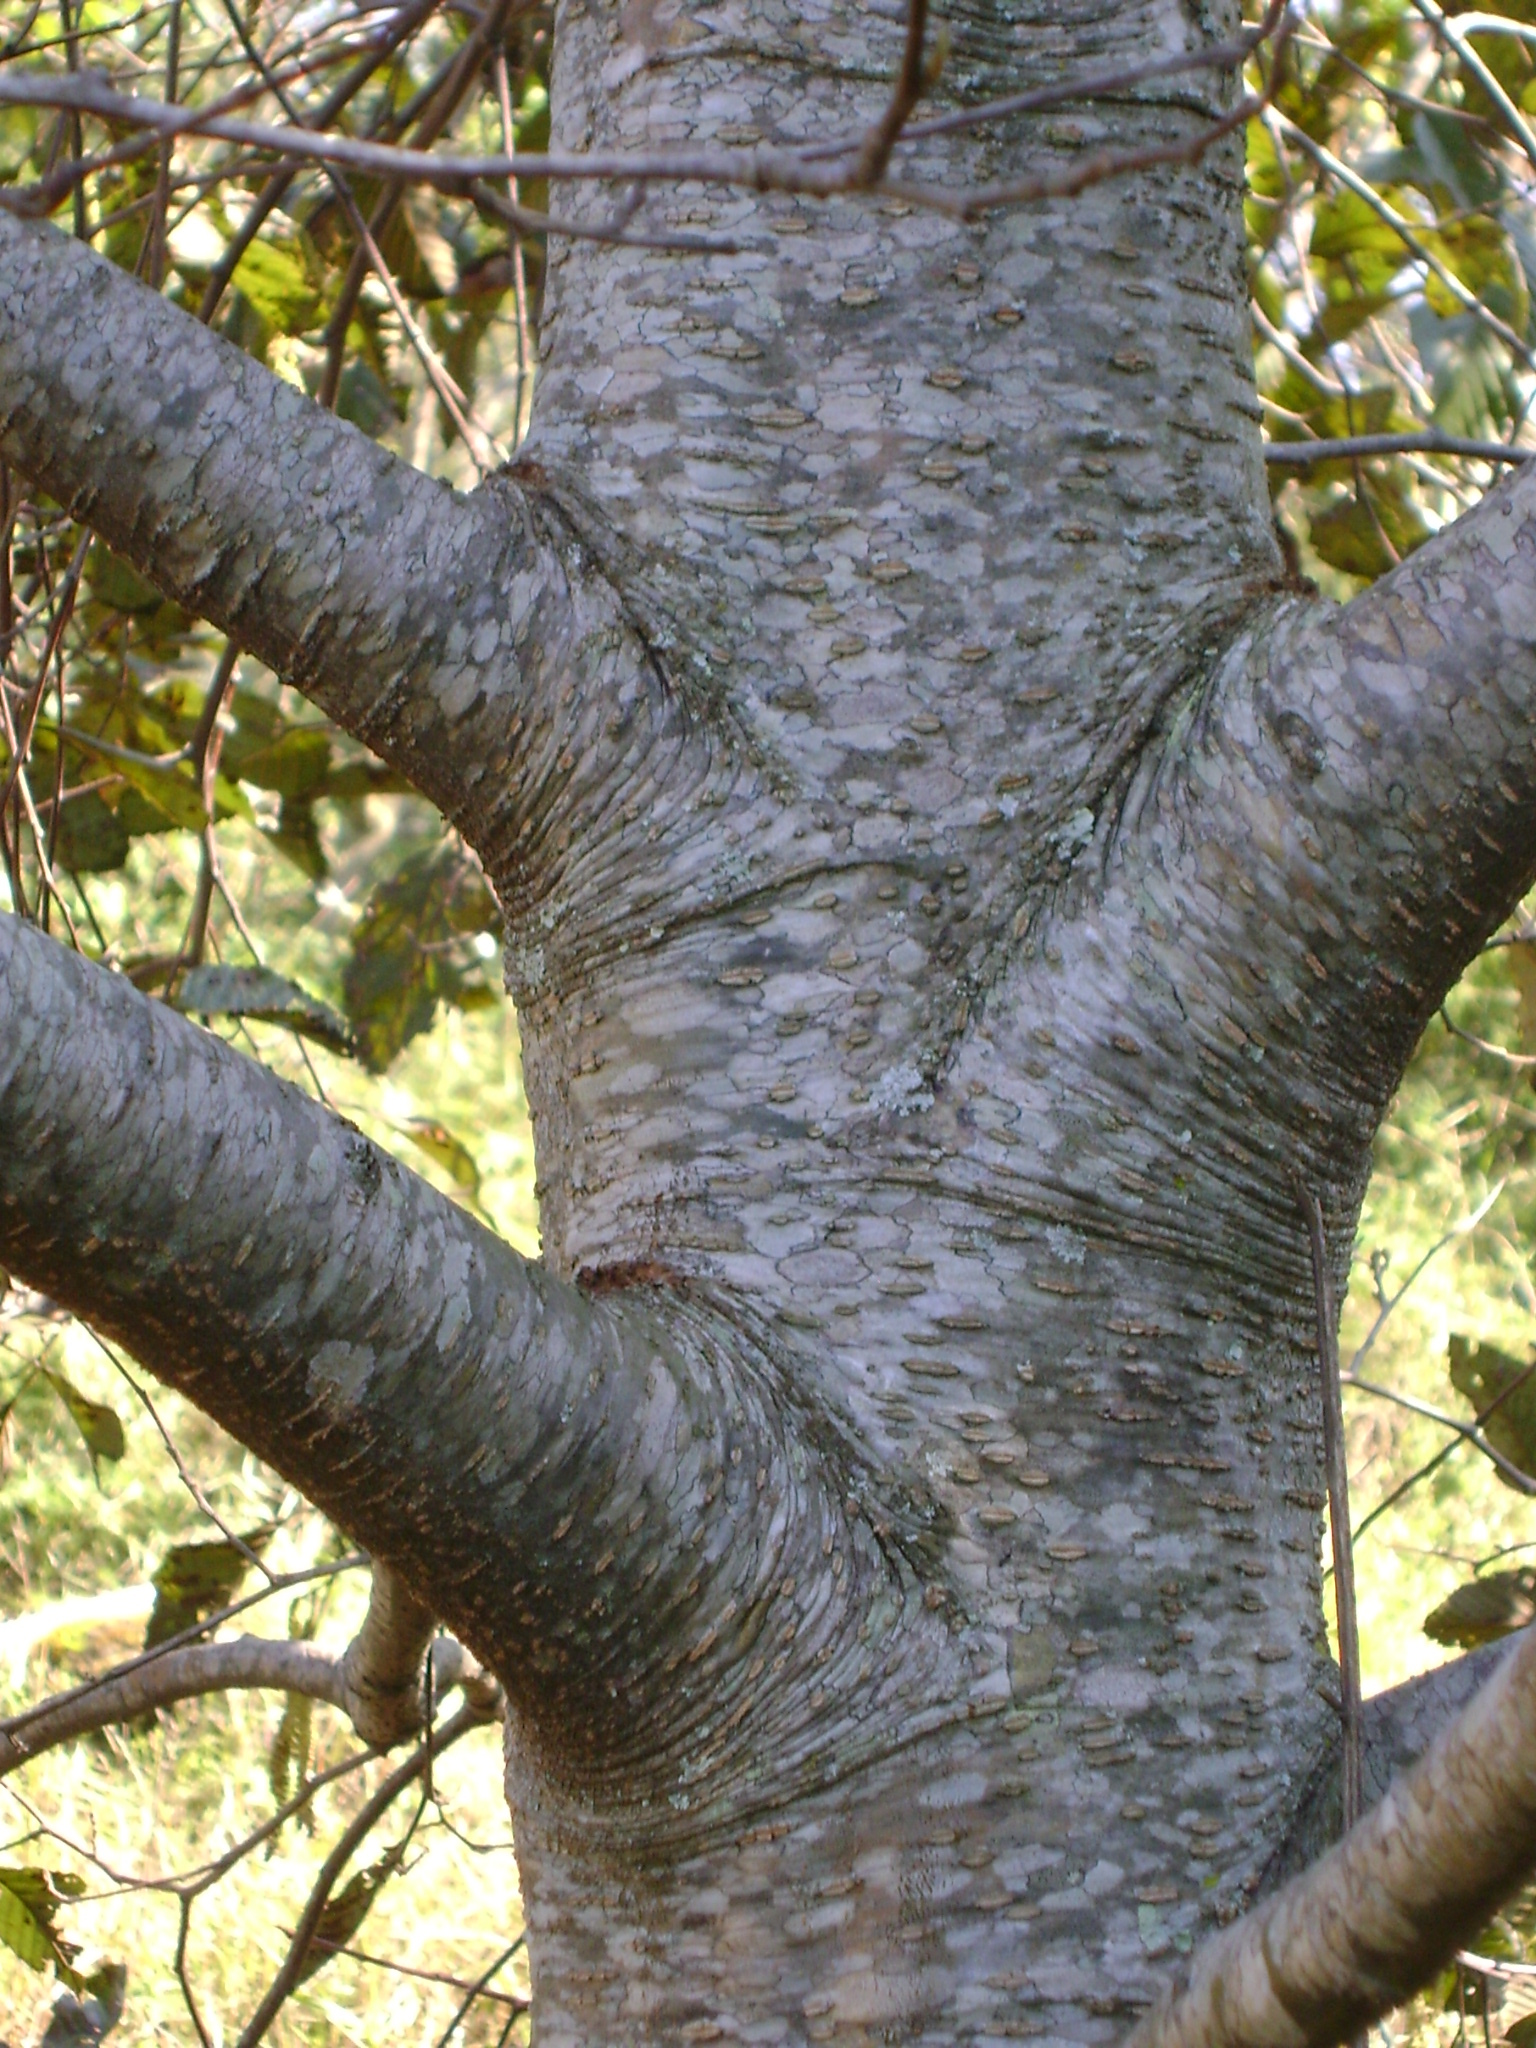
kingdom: Plantae
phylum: Tracheophyta
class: Magnoliopsida
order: Fagales
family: Betulaceae
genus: Alnus
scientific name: Alnus acuminata
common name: Alder
